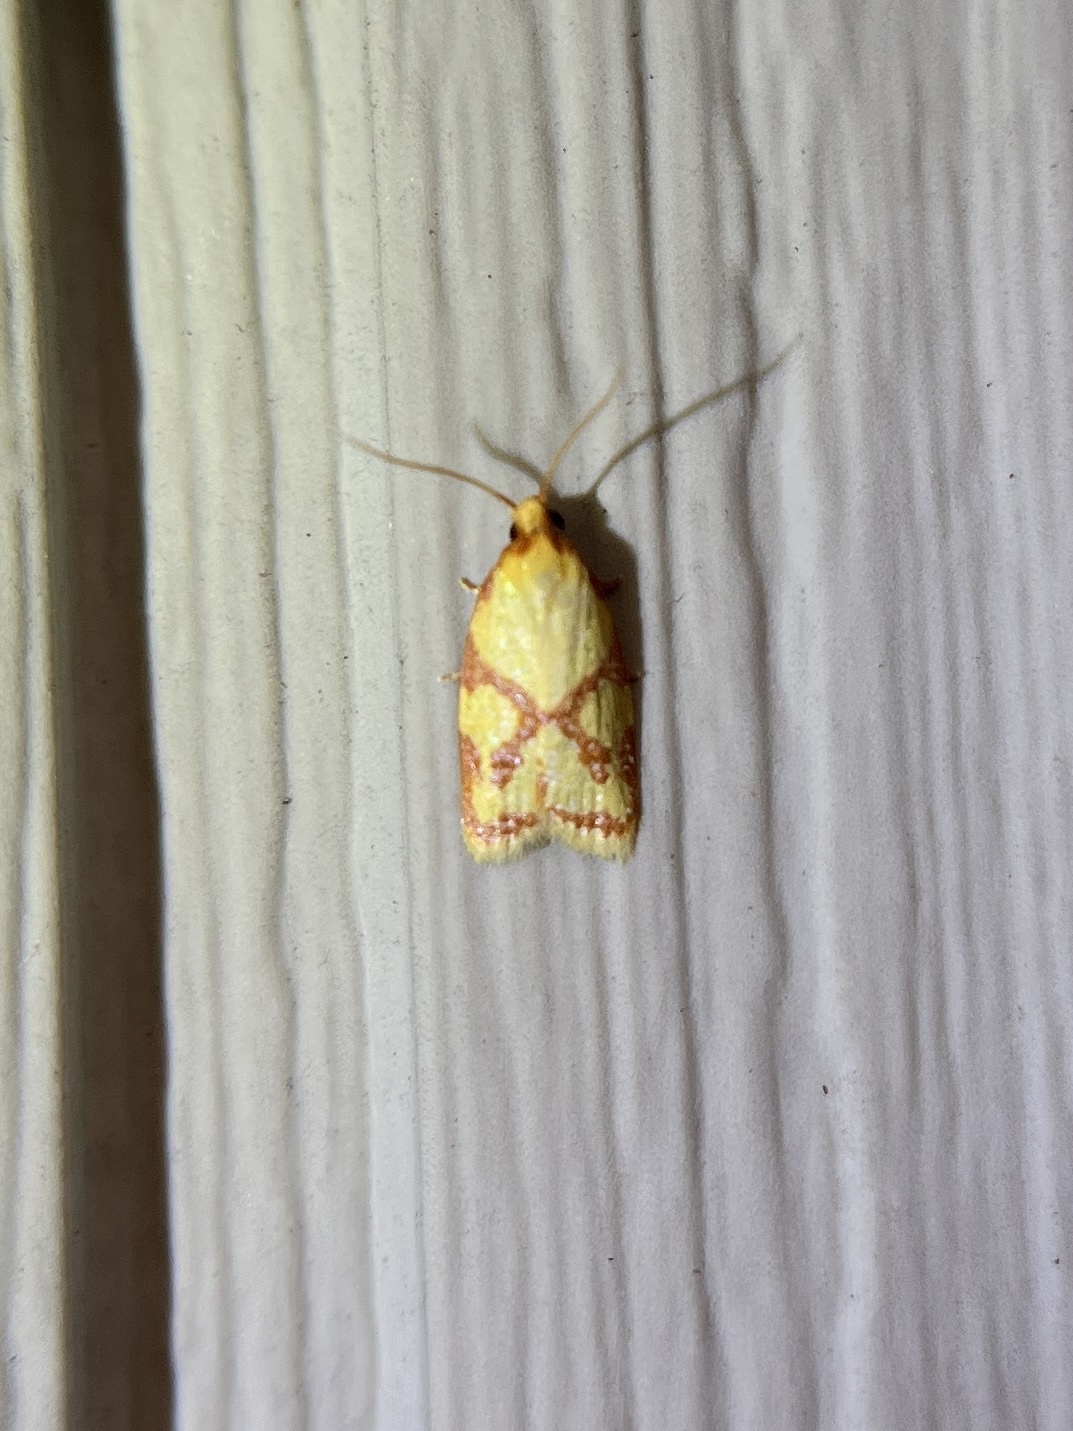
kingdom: Animalia
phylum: Arthropoda
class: Insecta
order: Lepidoptera
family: Tortricidae
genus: Sparganothis
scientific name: Sparganothis sulfureana
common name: Sparganothis fruitworm moth
